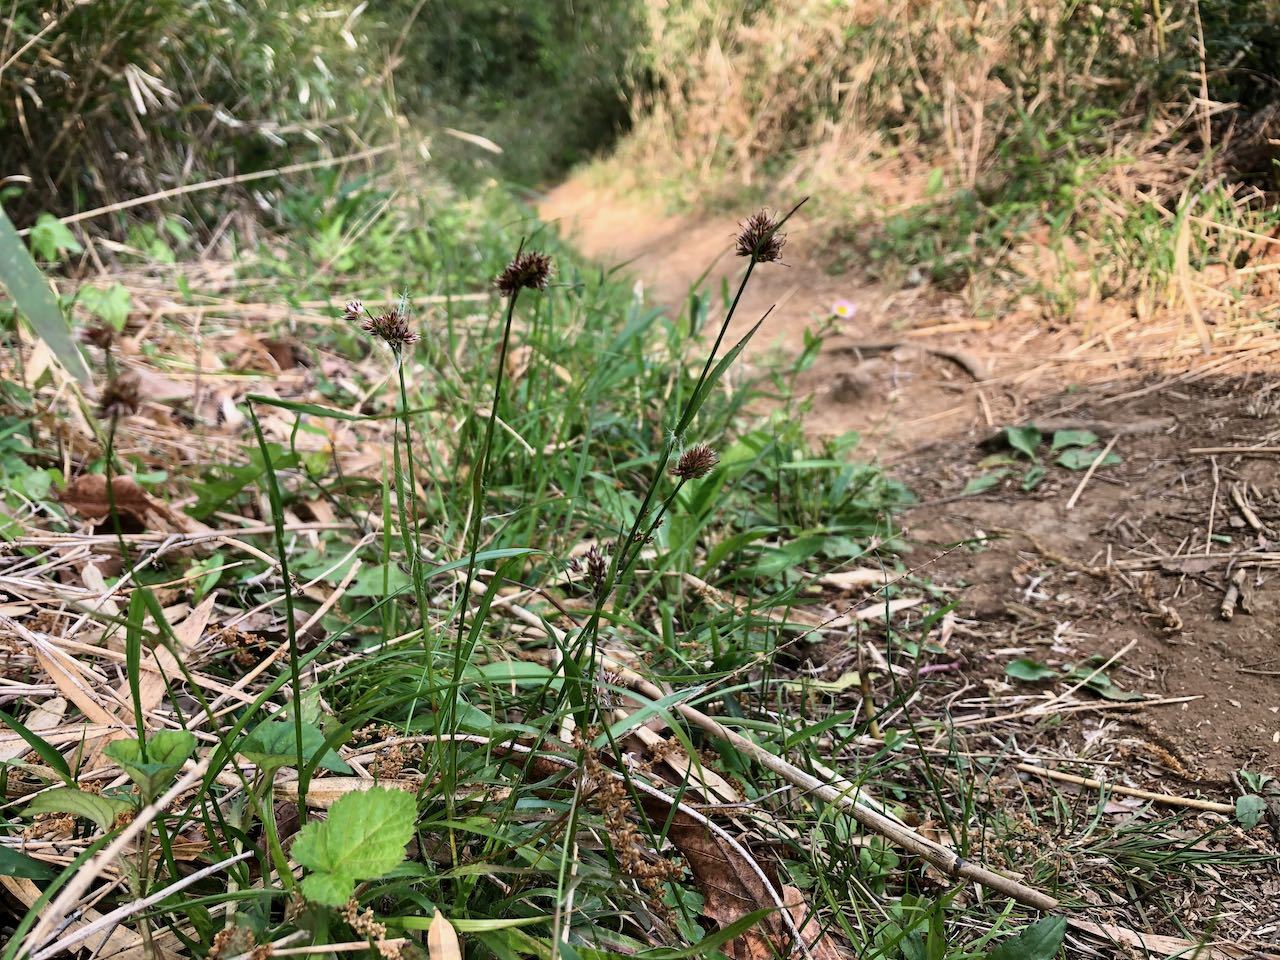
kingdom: Plantae
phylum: Tracheophyta
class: Liliopsida
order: Poales
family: Juncaceae
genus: Luzula
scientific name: Luzula capitata
